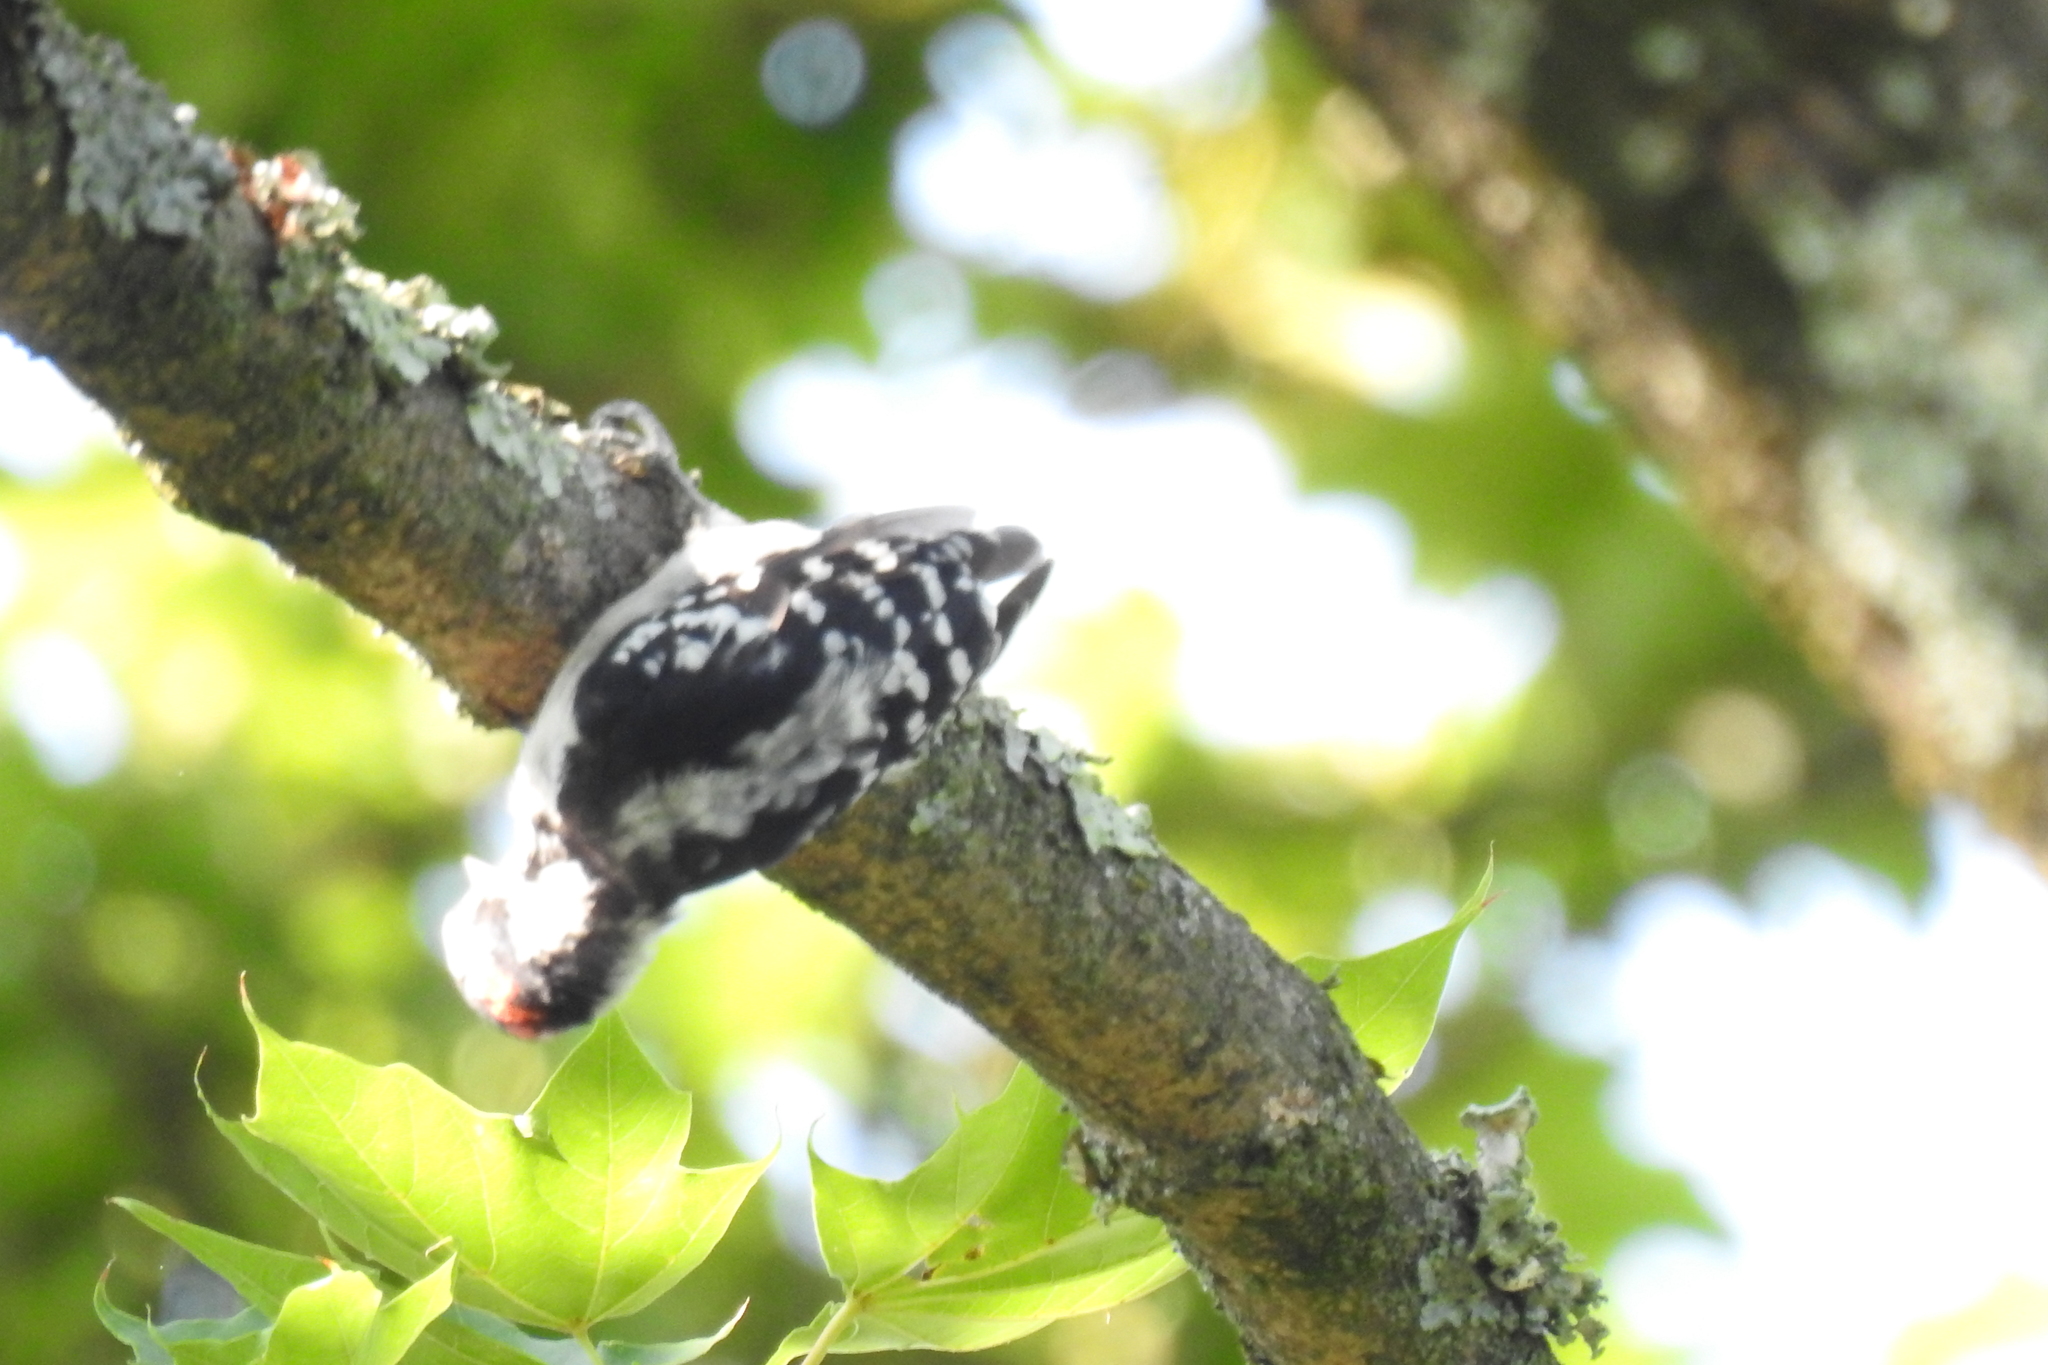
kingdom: Animalia
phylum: Chordata
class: Aves
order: Piciformes
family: Picidae
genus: Dryobates
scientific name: Dryobates pubescens
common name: Downy woodpecker
